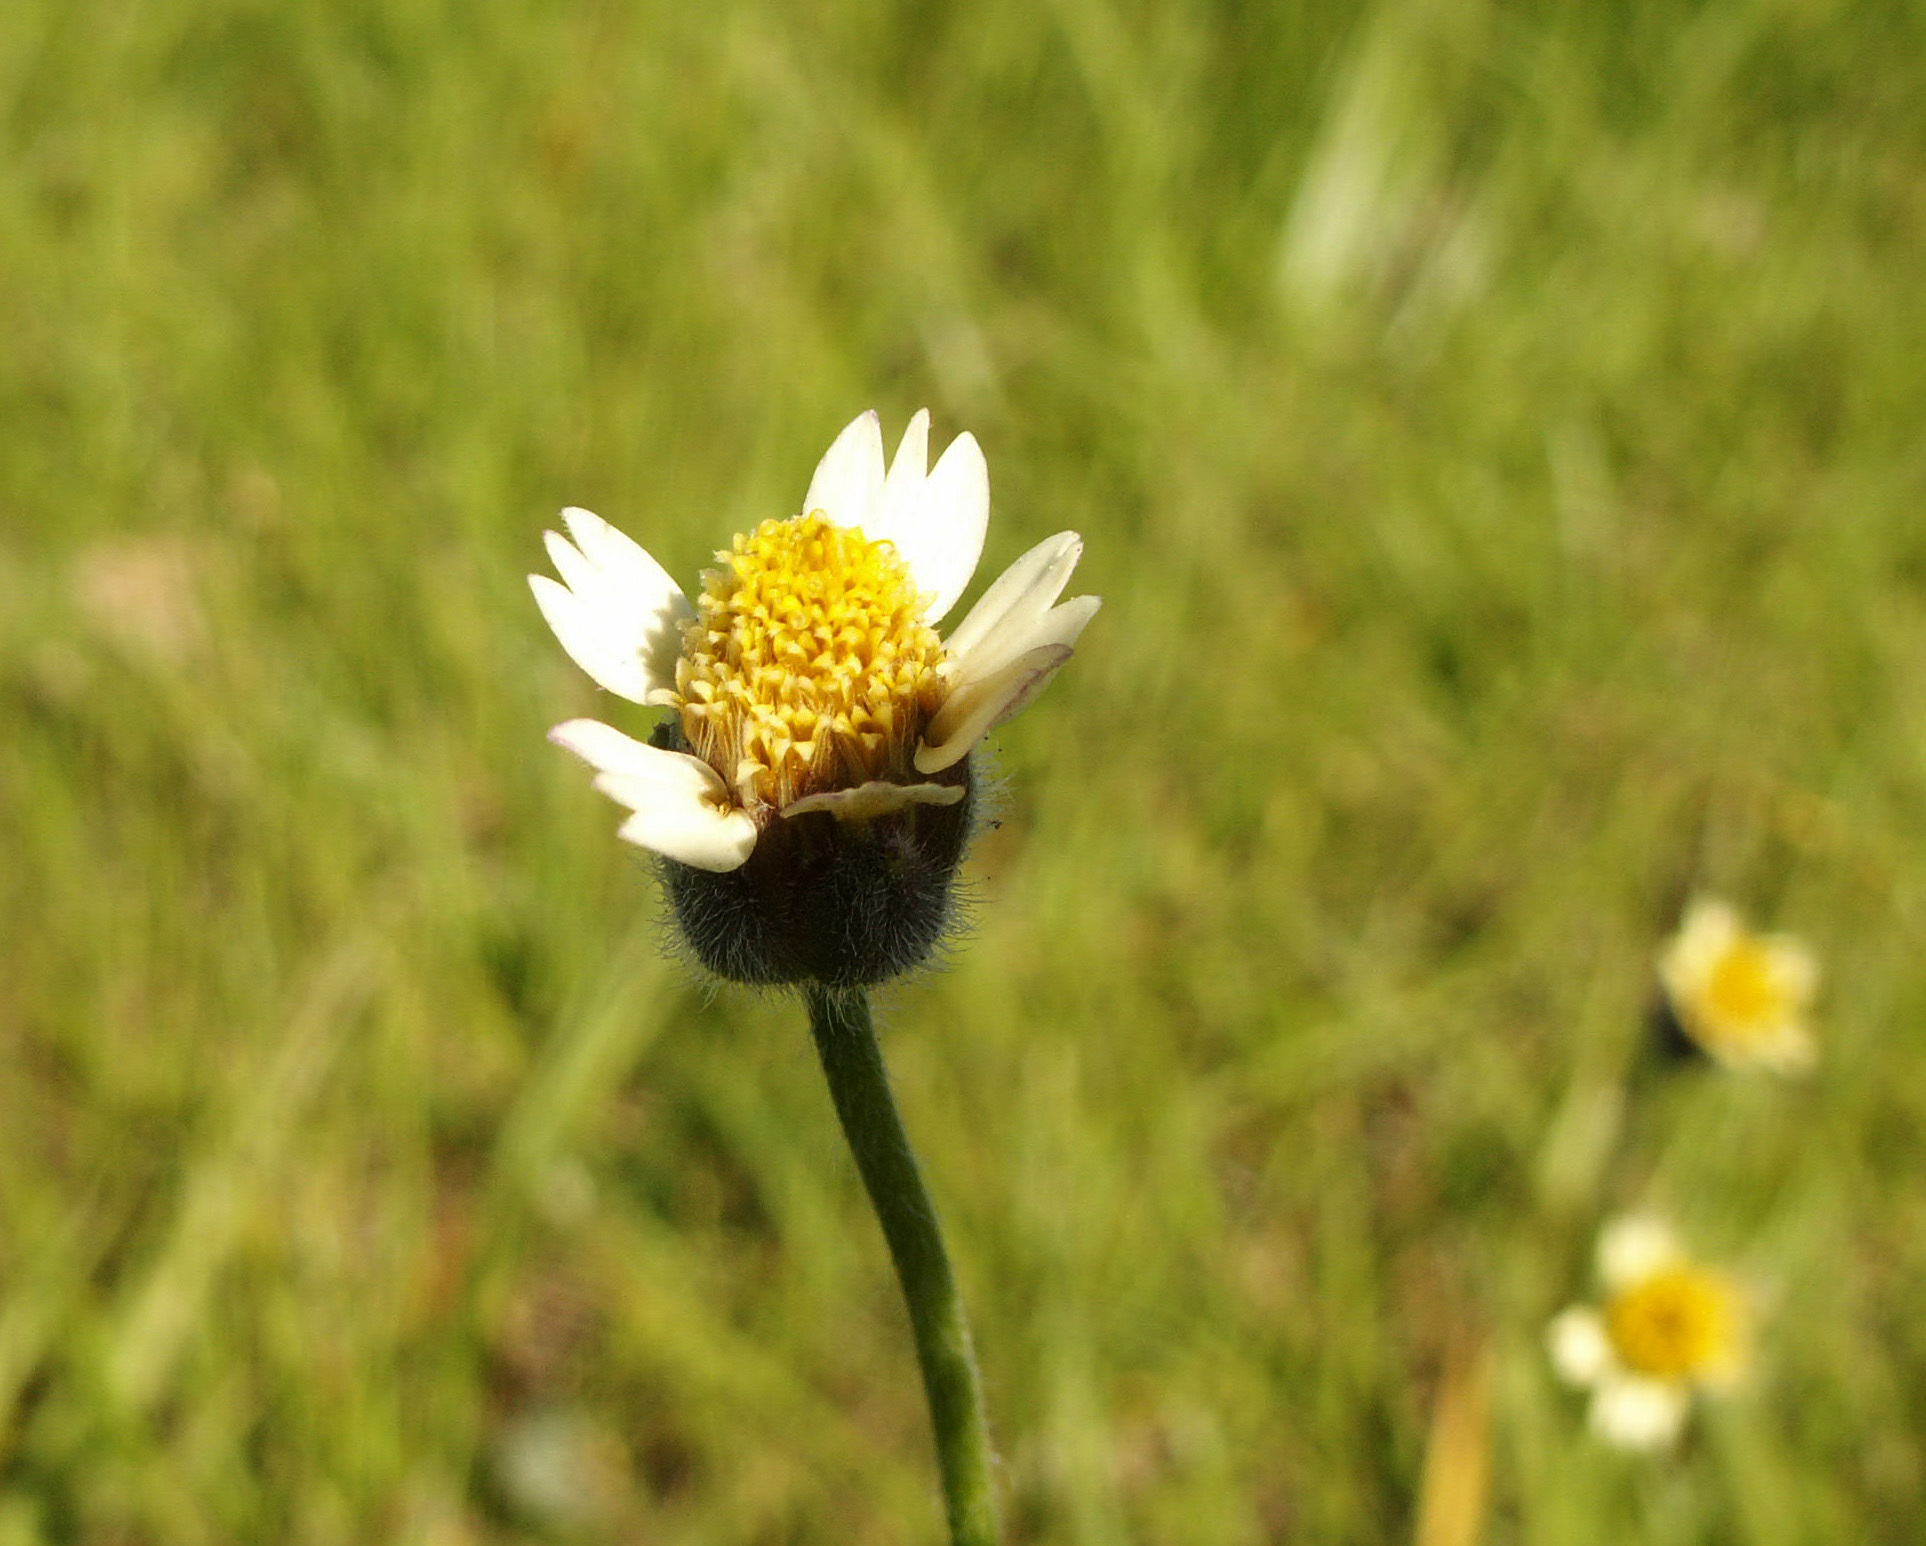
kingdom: Plantae
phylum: Tracheophyta
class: Magnoliopsida
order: Asterales
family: Asteraceae
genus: Tridax
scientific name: Tridax procumbens
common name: Coatbuttons
